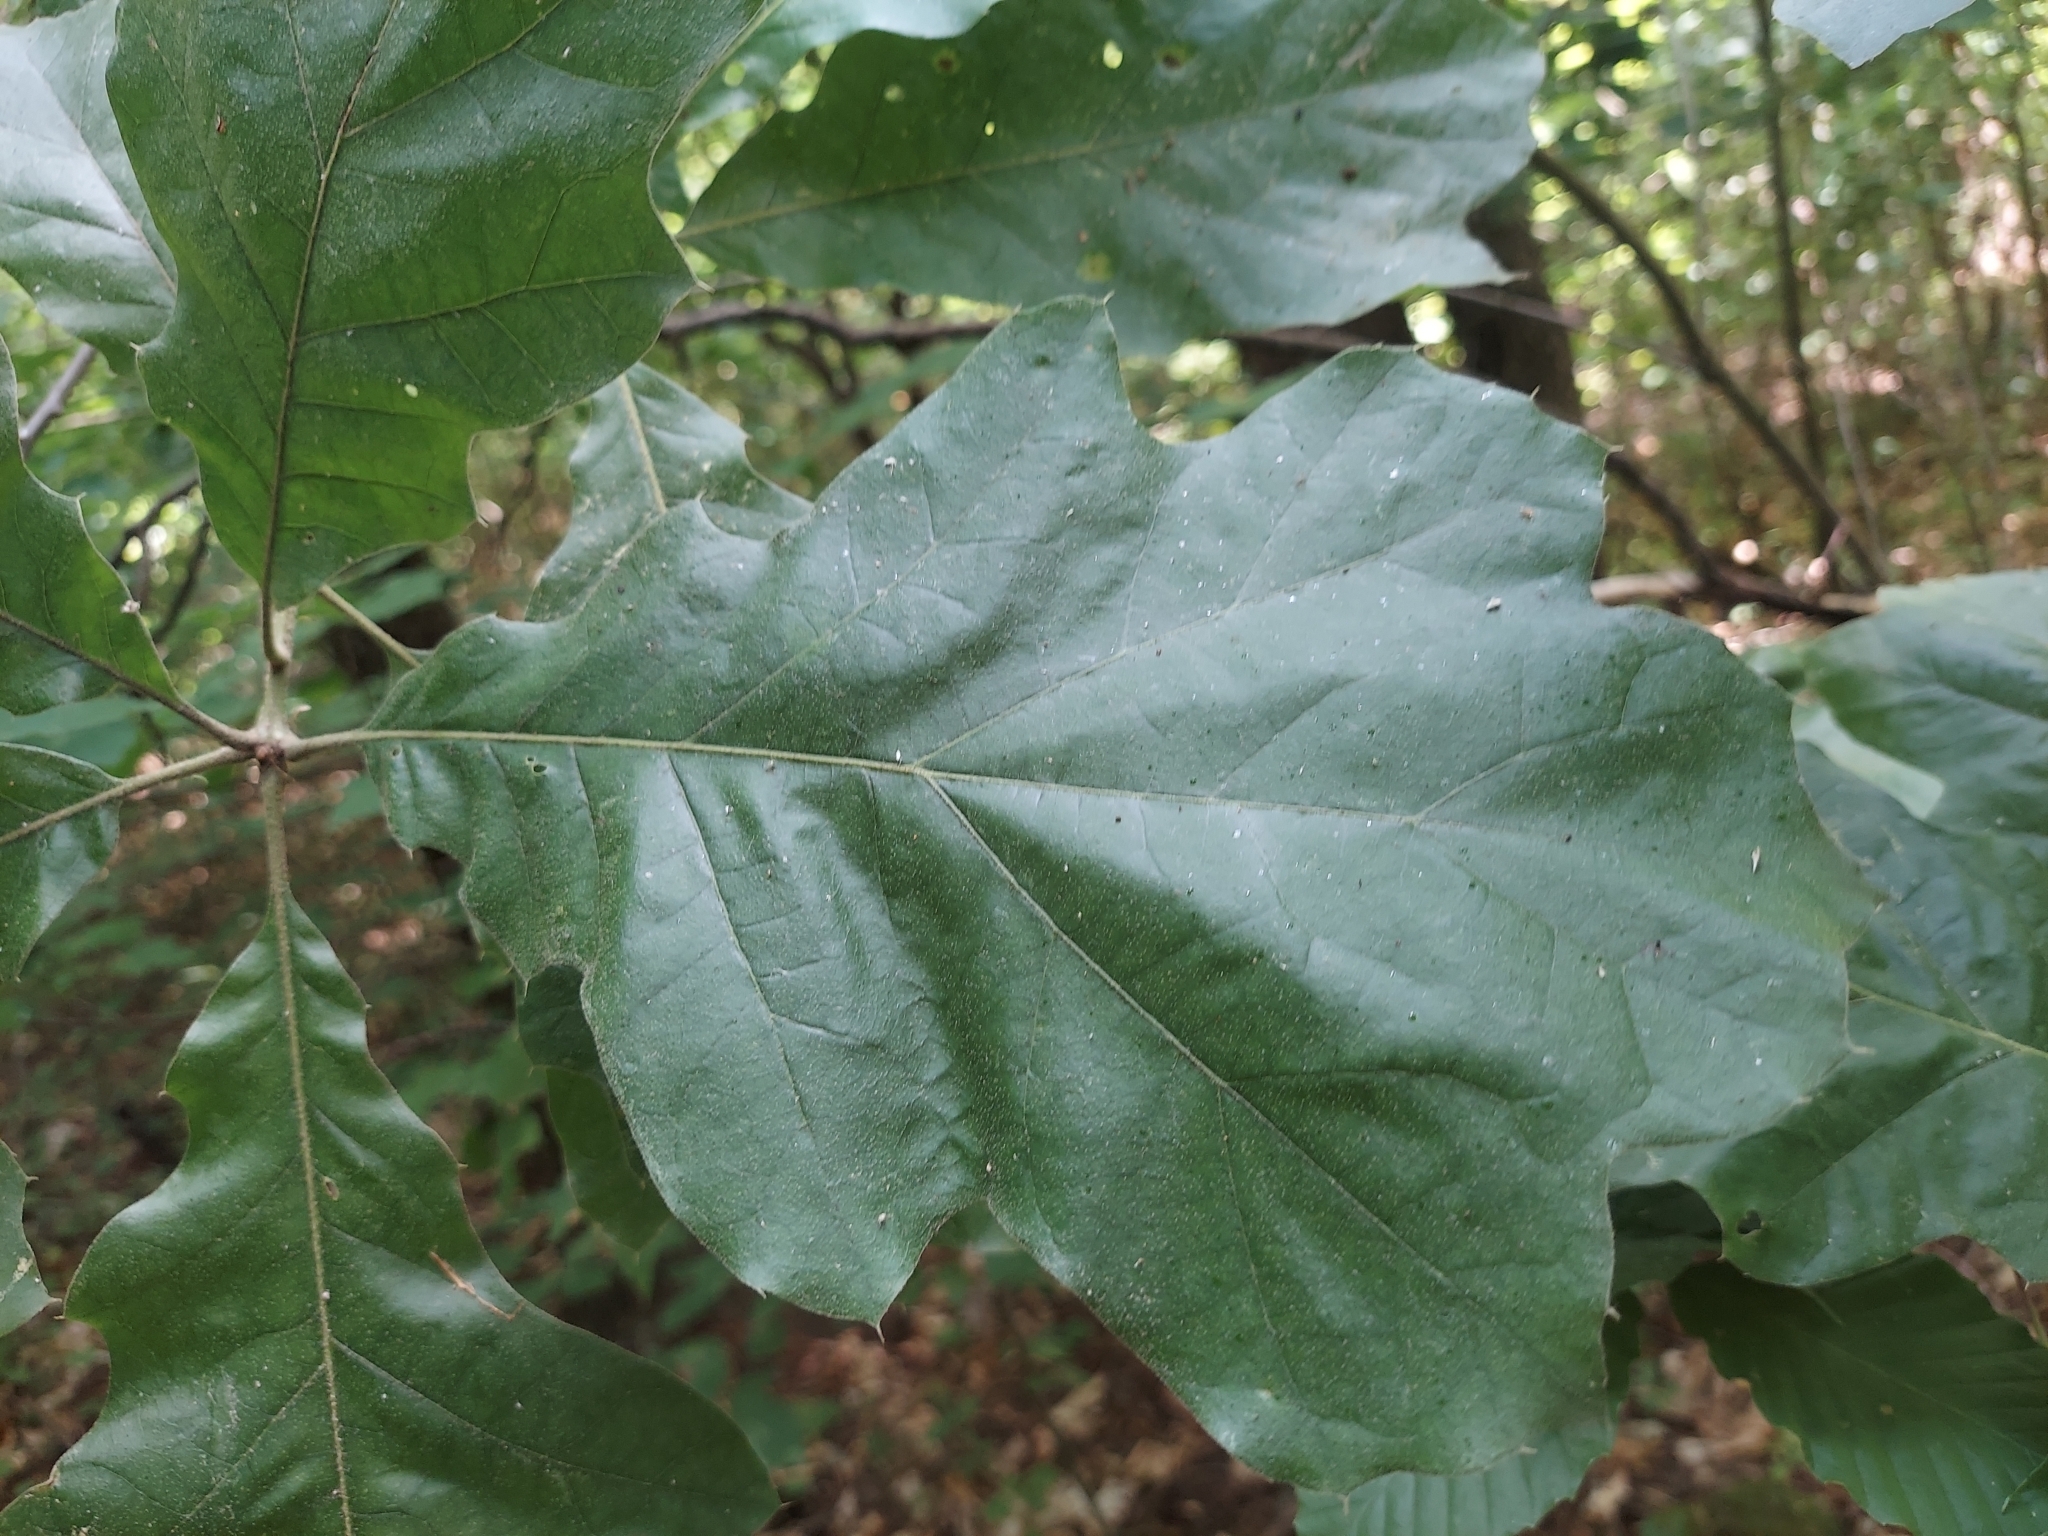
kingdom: Plantae
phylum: Tracheophyta
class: Magnoliopsida
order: Fagales
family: Fagaceae
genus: Quercus
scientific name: Quercus velutina
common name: Black oak
